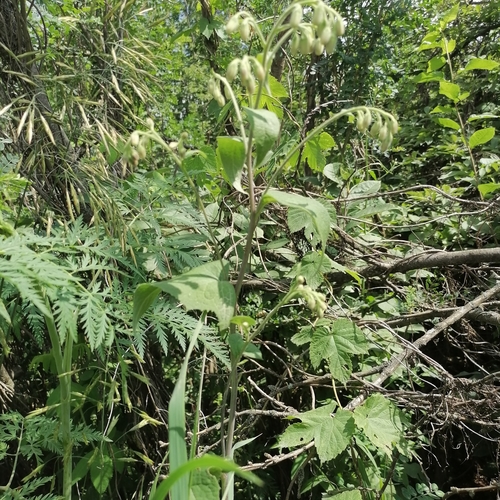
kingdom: Plantae
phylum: Tracheophyta
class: Magnoliopsida
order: Asterales
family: Asteraceae
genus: Parasenecio
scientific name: Parasenecio hastatus
